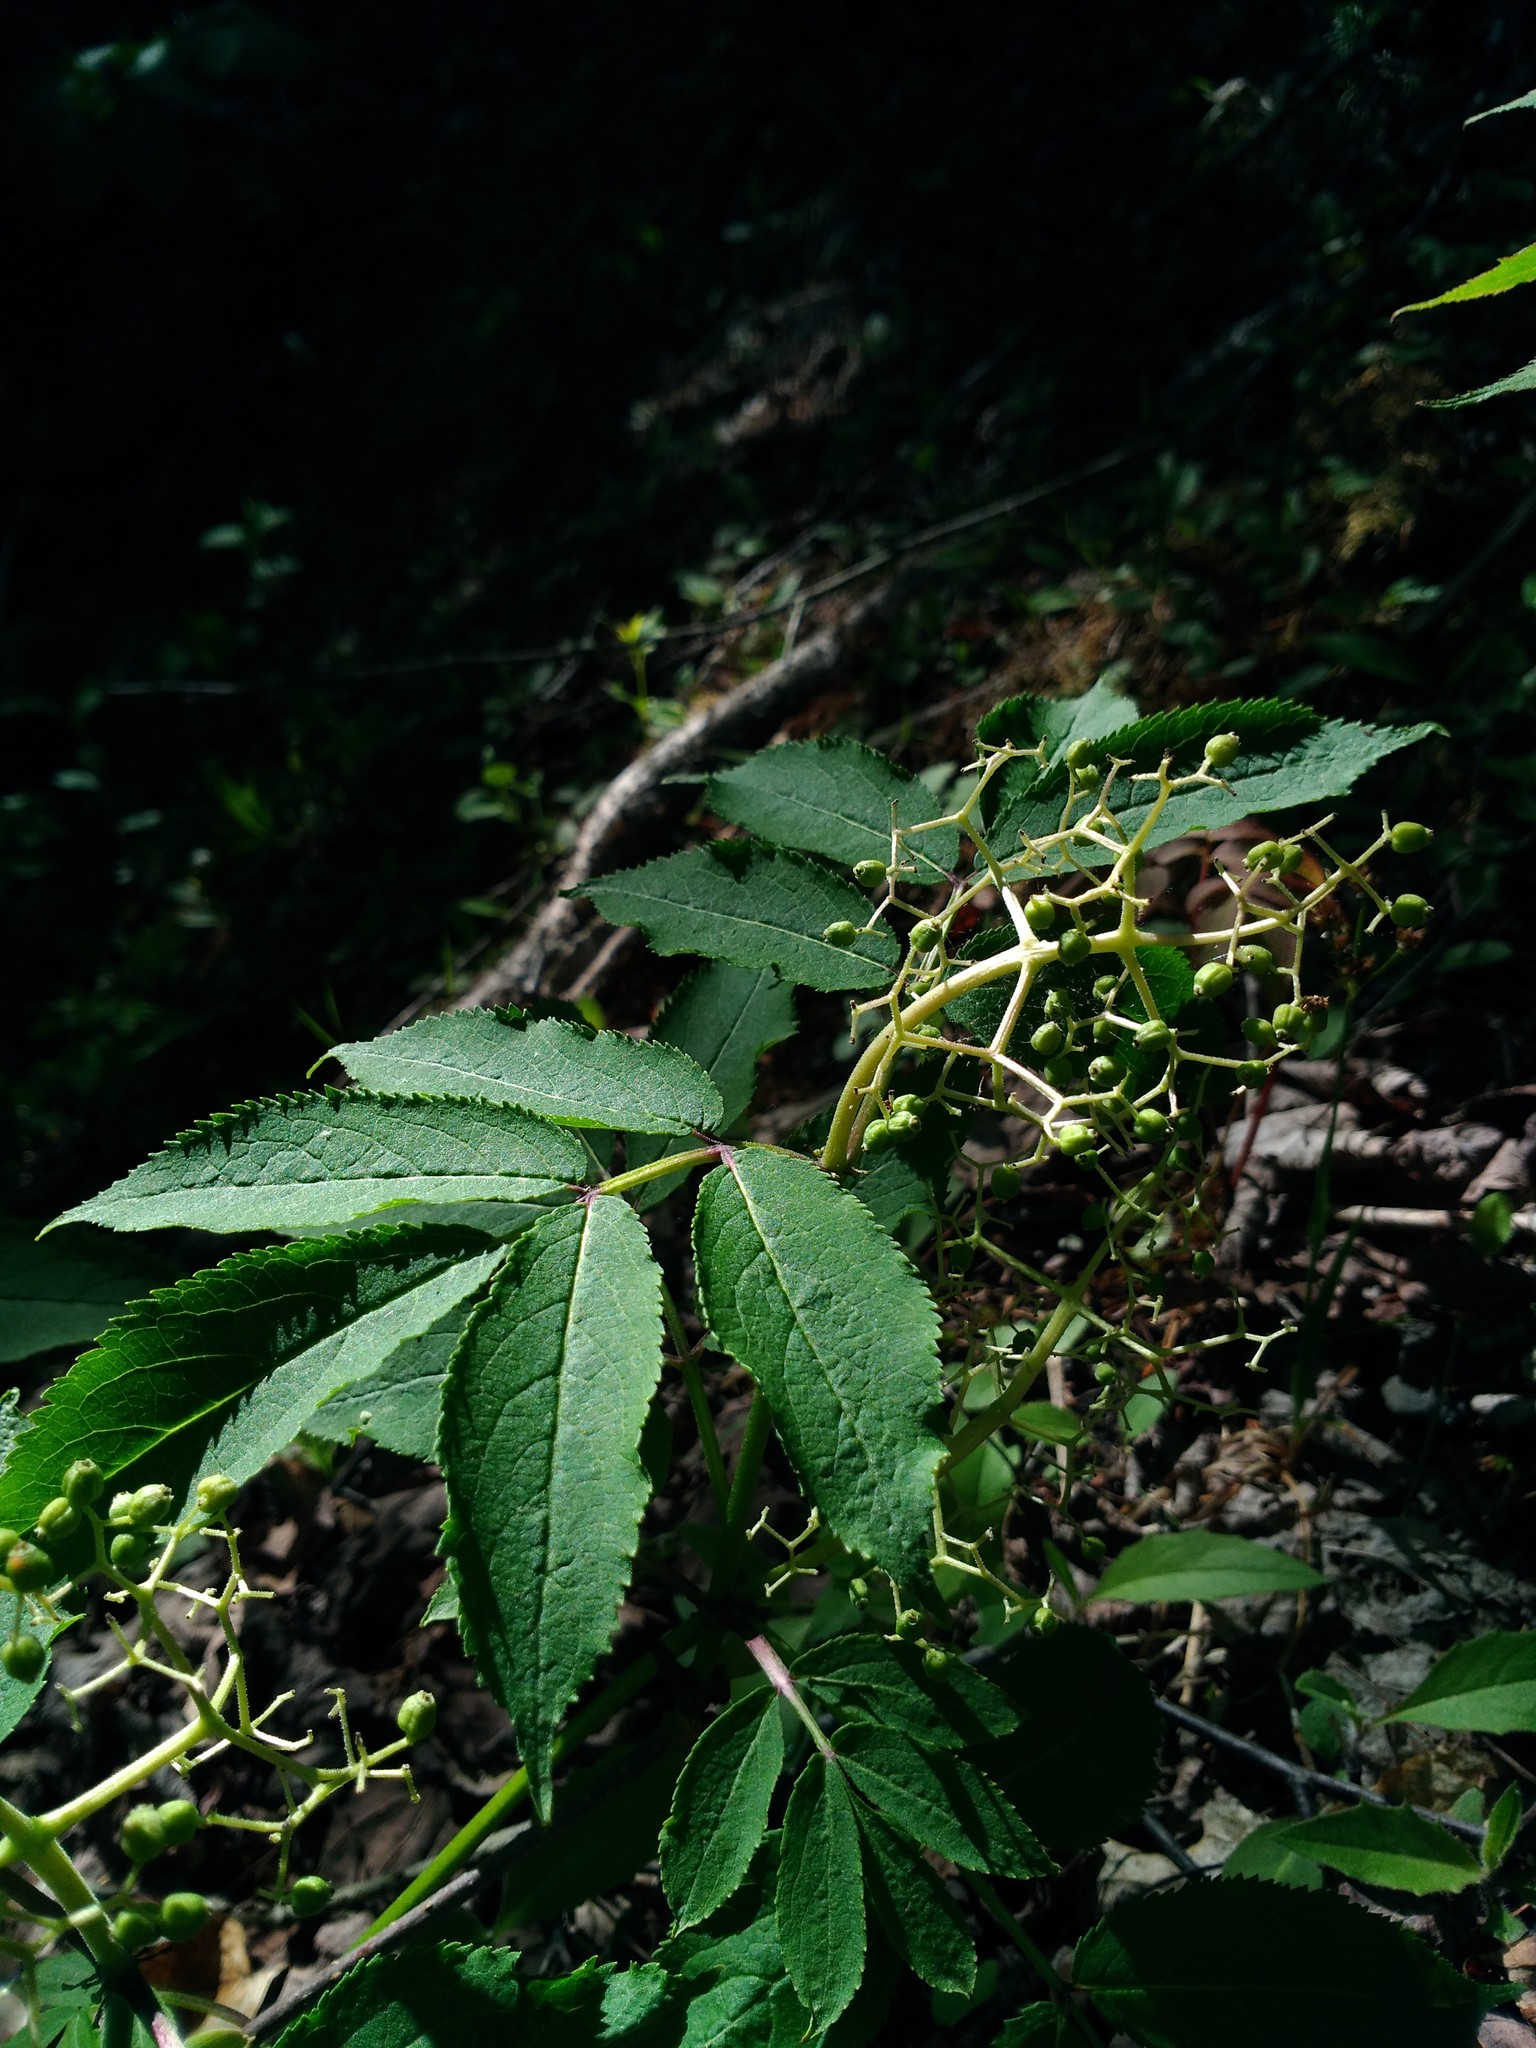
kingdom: Plantae
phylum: Tracheophyta
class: Magnoliopsida
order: Dipsacales
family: Viburnaceae
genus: Sambucus
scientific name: Sambucus racemosa
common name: Red-berried elder
